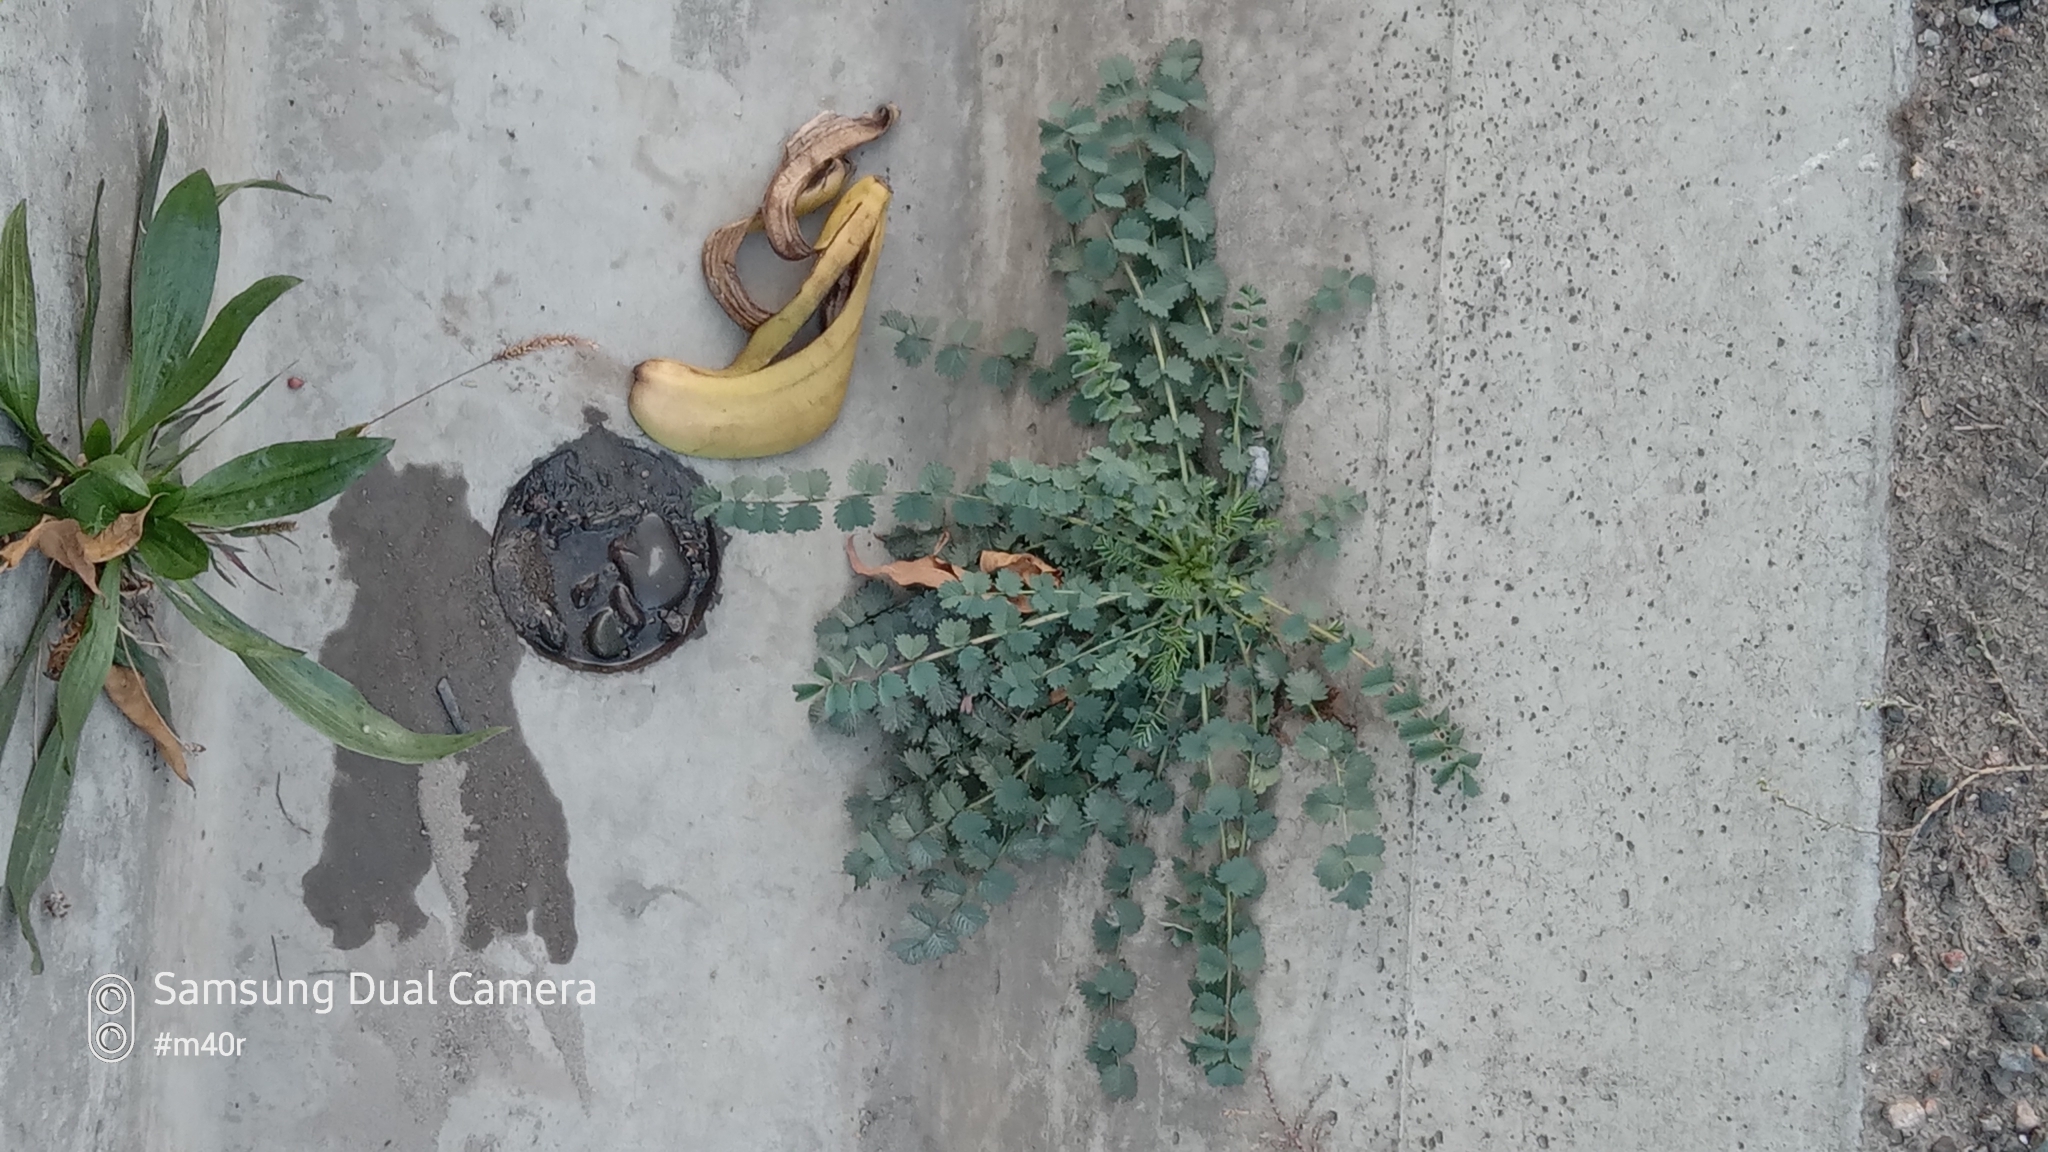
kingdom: Plantae
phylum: Tracheophyta
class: Magnoliopsida
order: Rosales
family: Rosaceae
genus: Poterium
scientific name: Poterium sanguisorba
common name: Salad burnet
